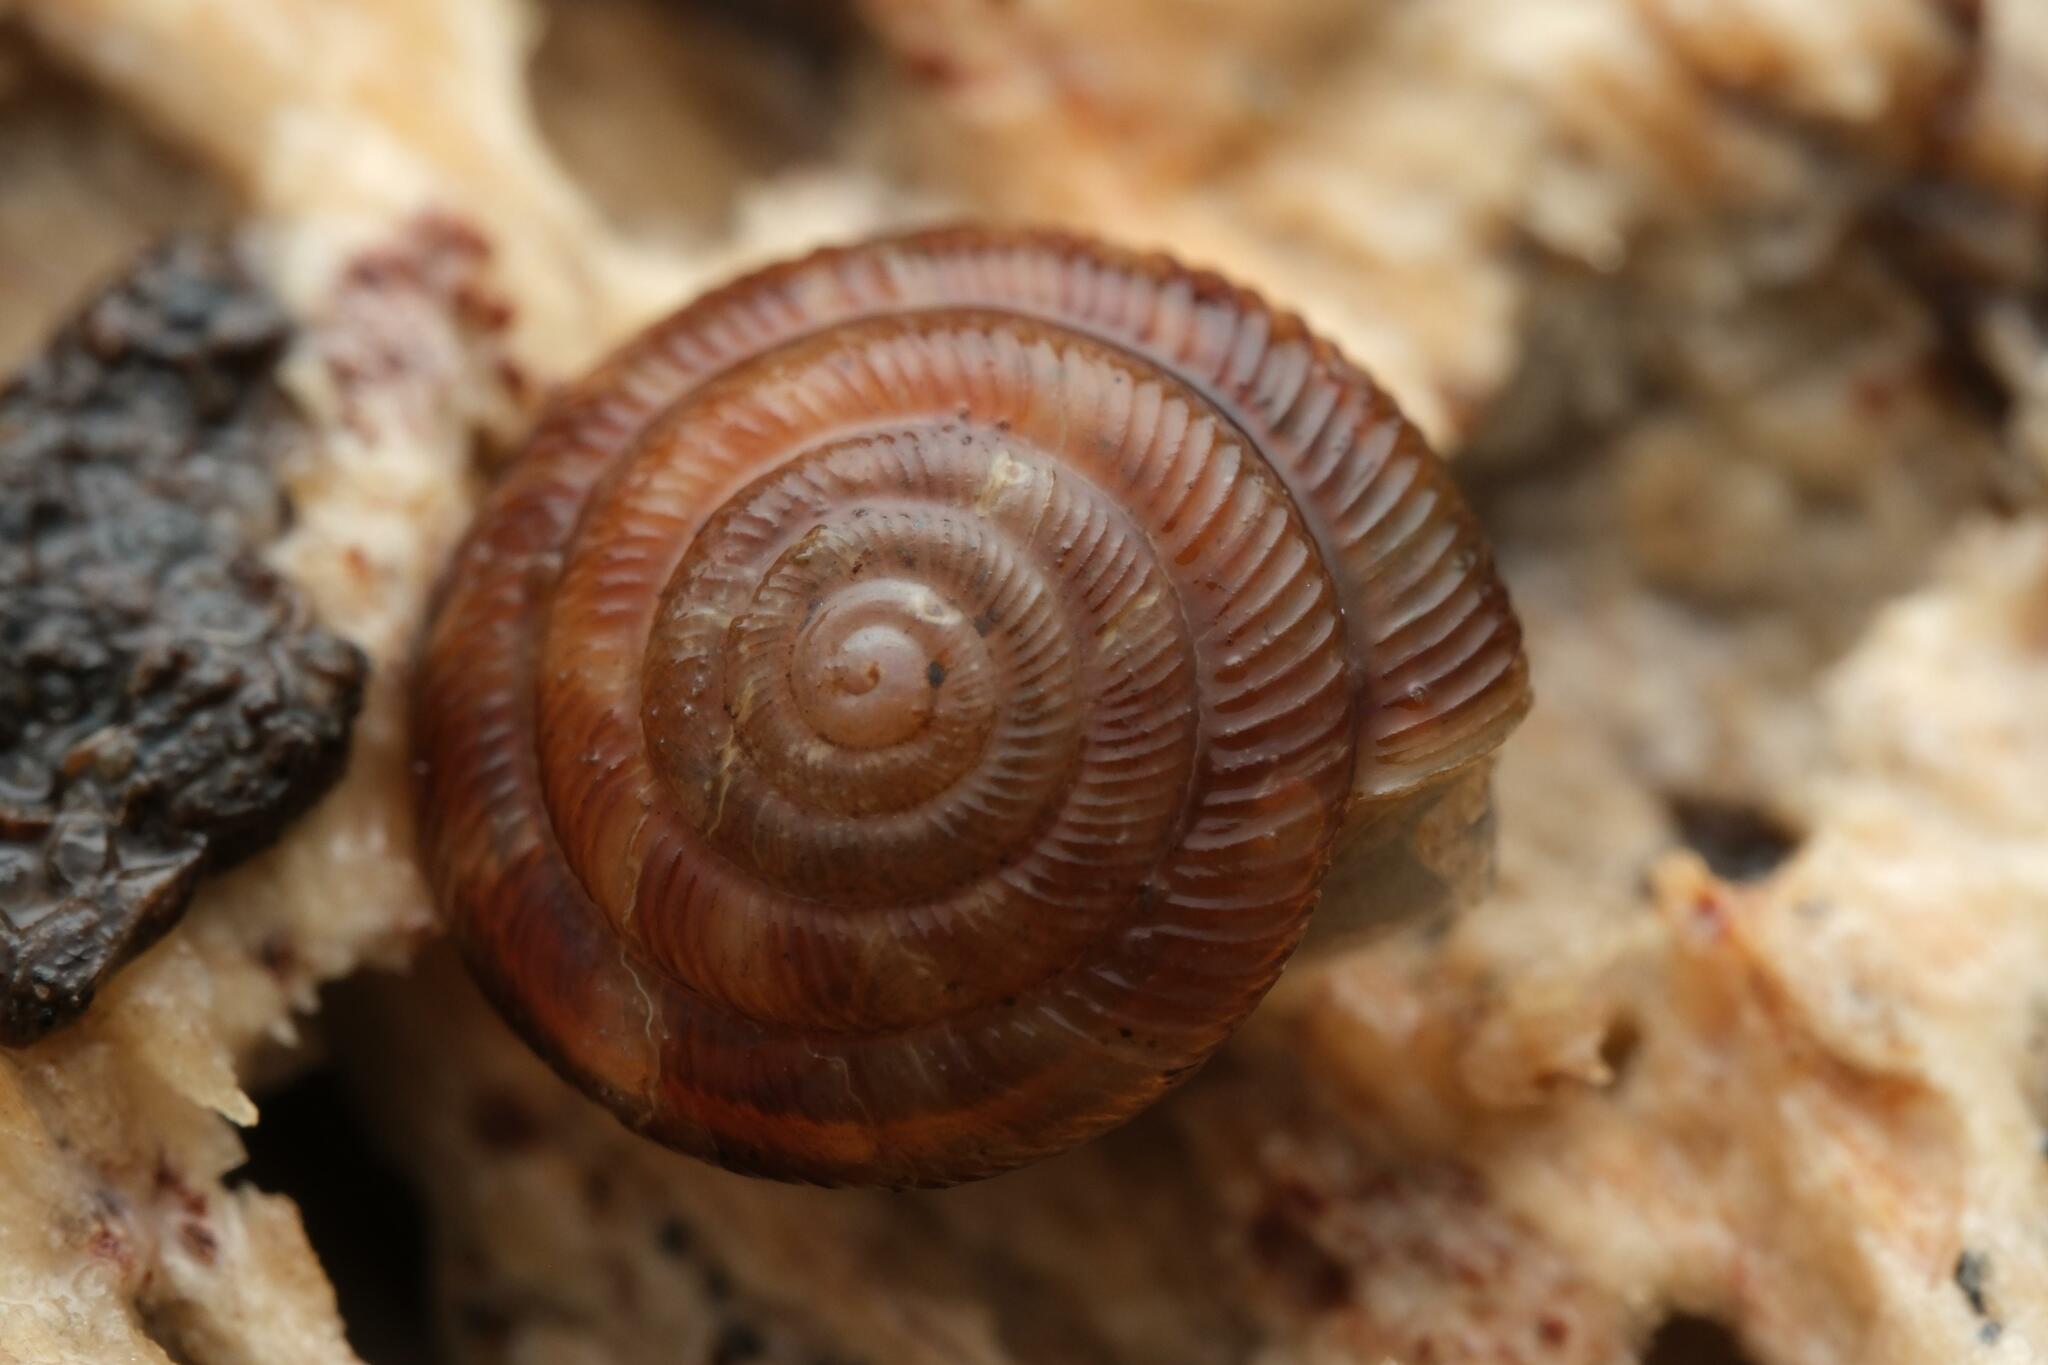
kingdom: Animalia
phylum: Mollusca
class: Gastropoda
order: Stylommatophora
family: Discidae
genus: Discus
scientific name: Discus rotundatus
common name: Rounded snail
